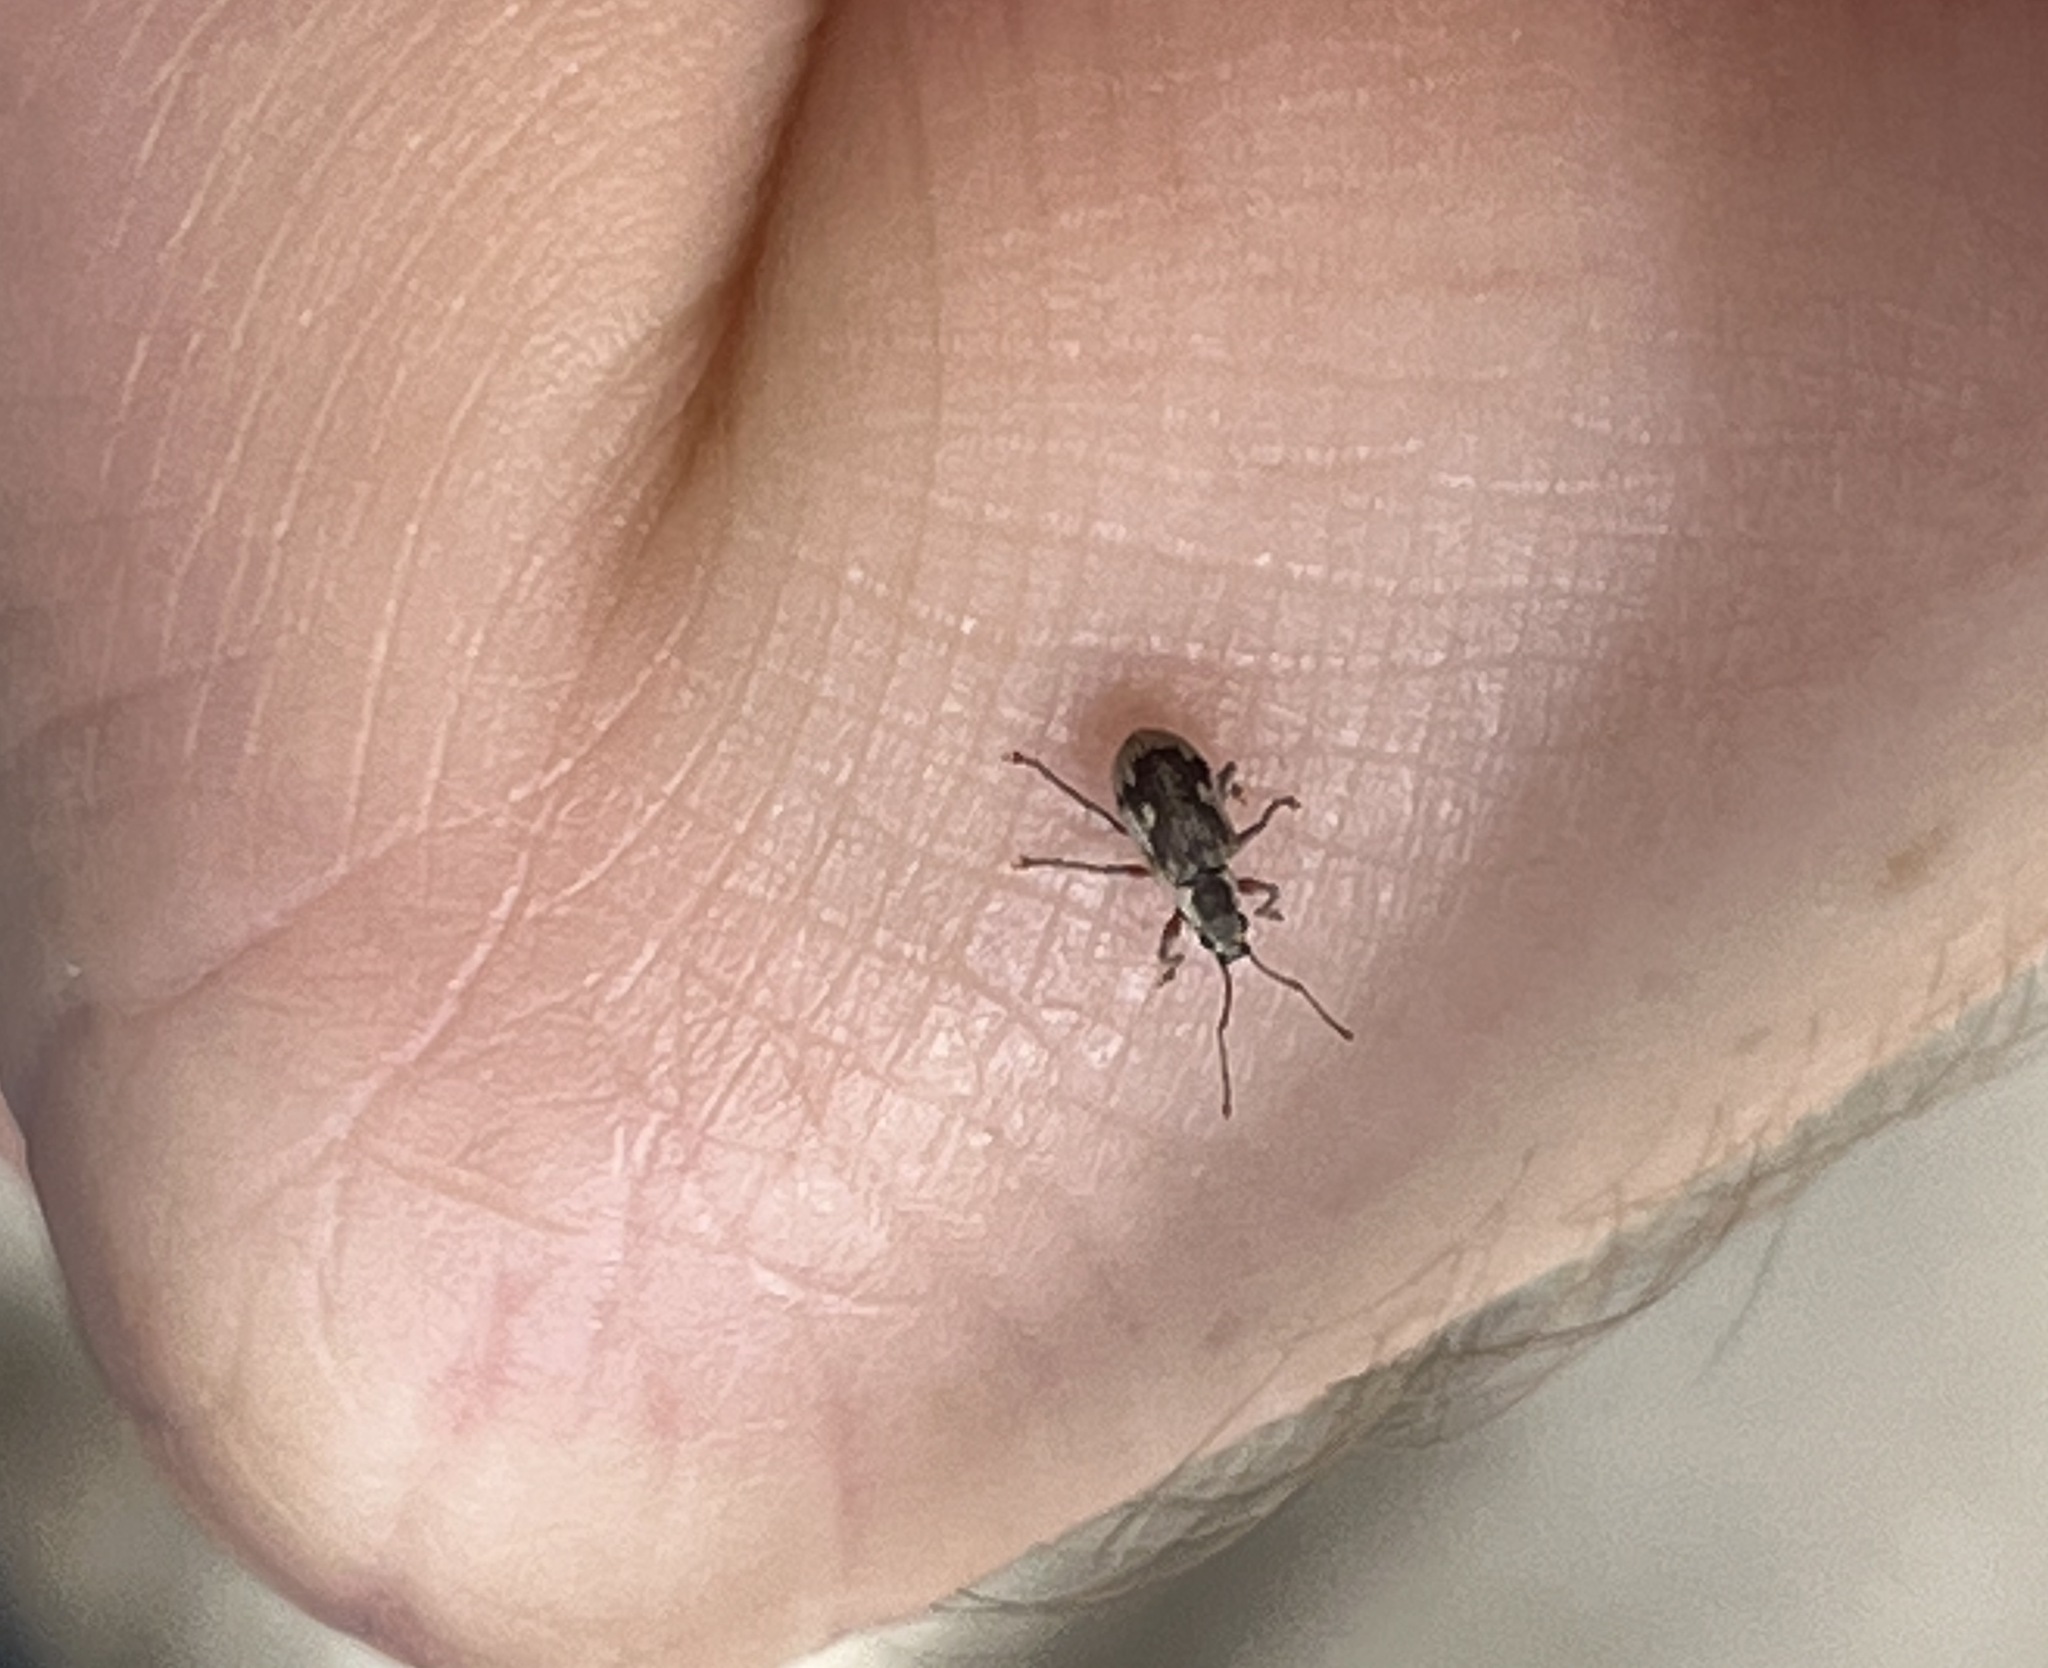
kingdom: Animalia
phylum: Arthropoda
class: Insecta
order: Coleoptera
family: Curculionidae
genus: Pseudomyllocerus
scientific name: Pseudomyllocerus caucasicus
